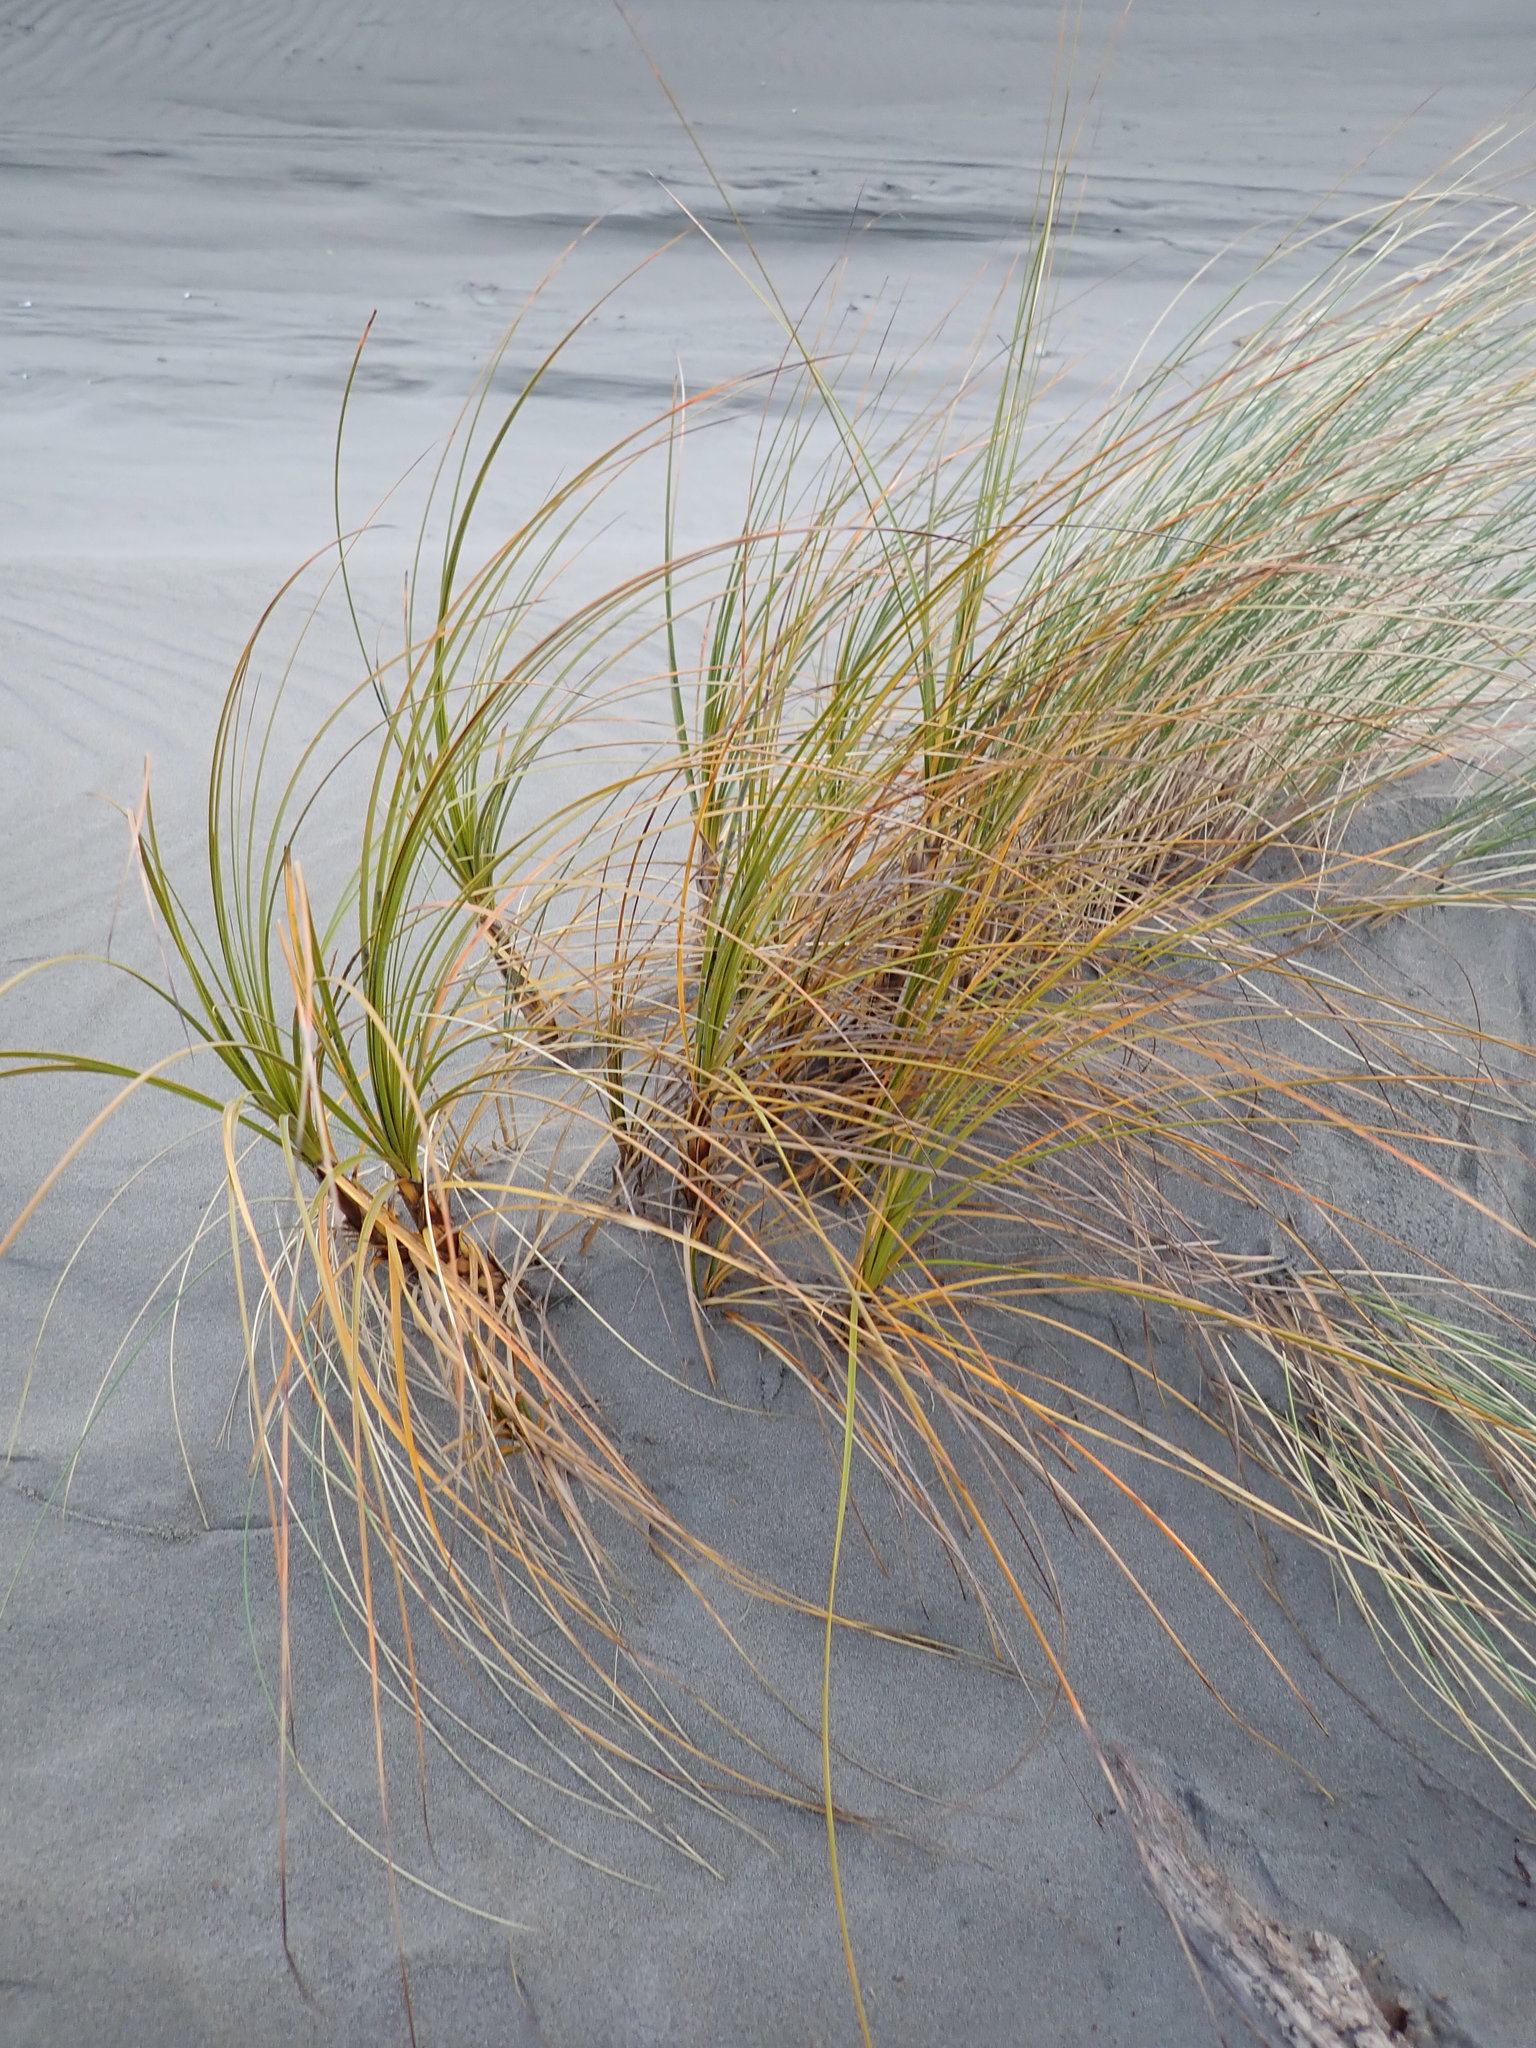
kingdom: Plantae
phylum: Tracheophyta
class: Liliopsida
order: Poales
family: Cyperaceae
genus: Ficinia
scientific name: Ficinia spiralis
